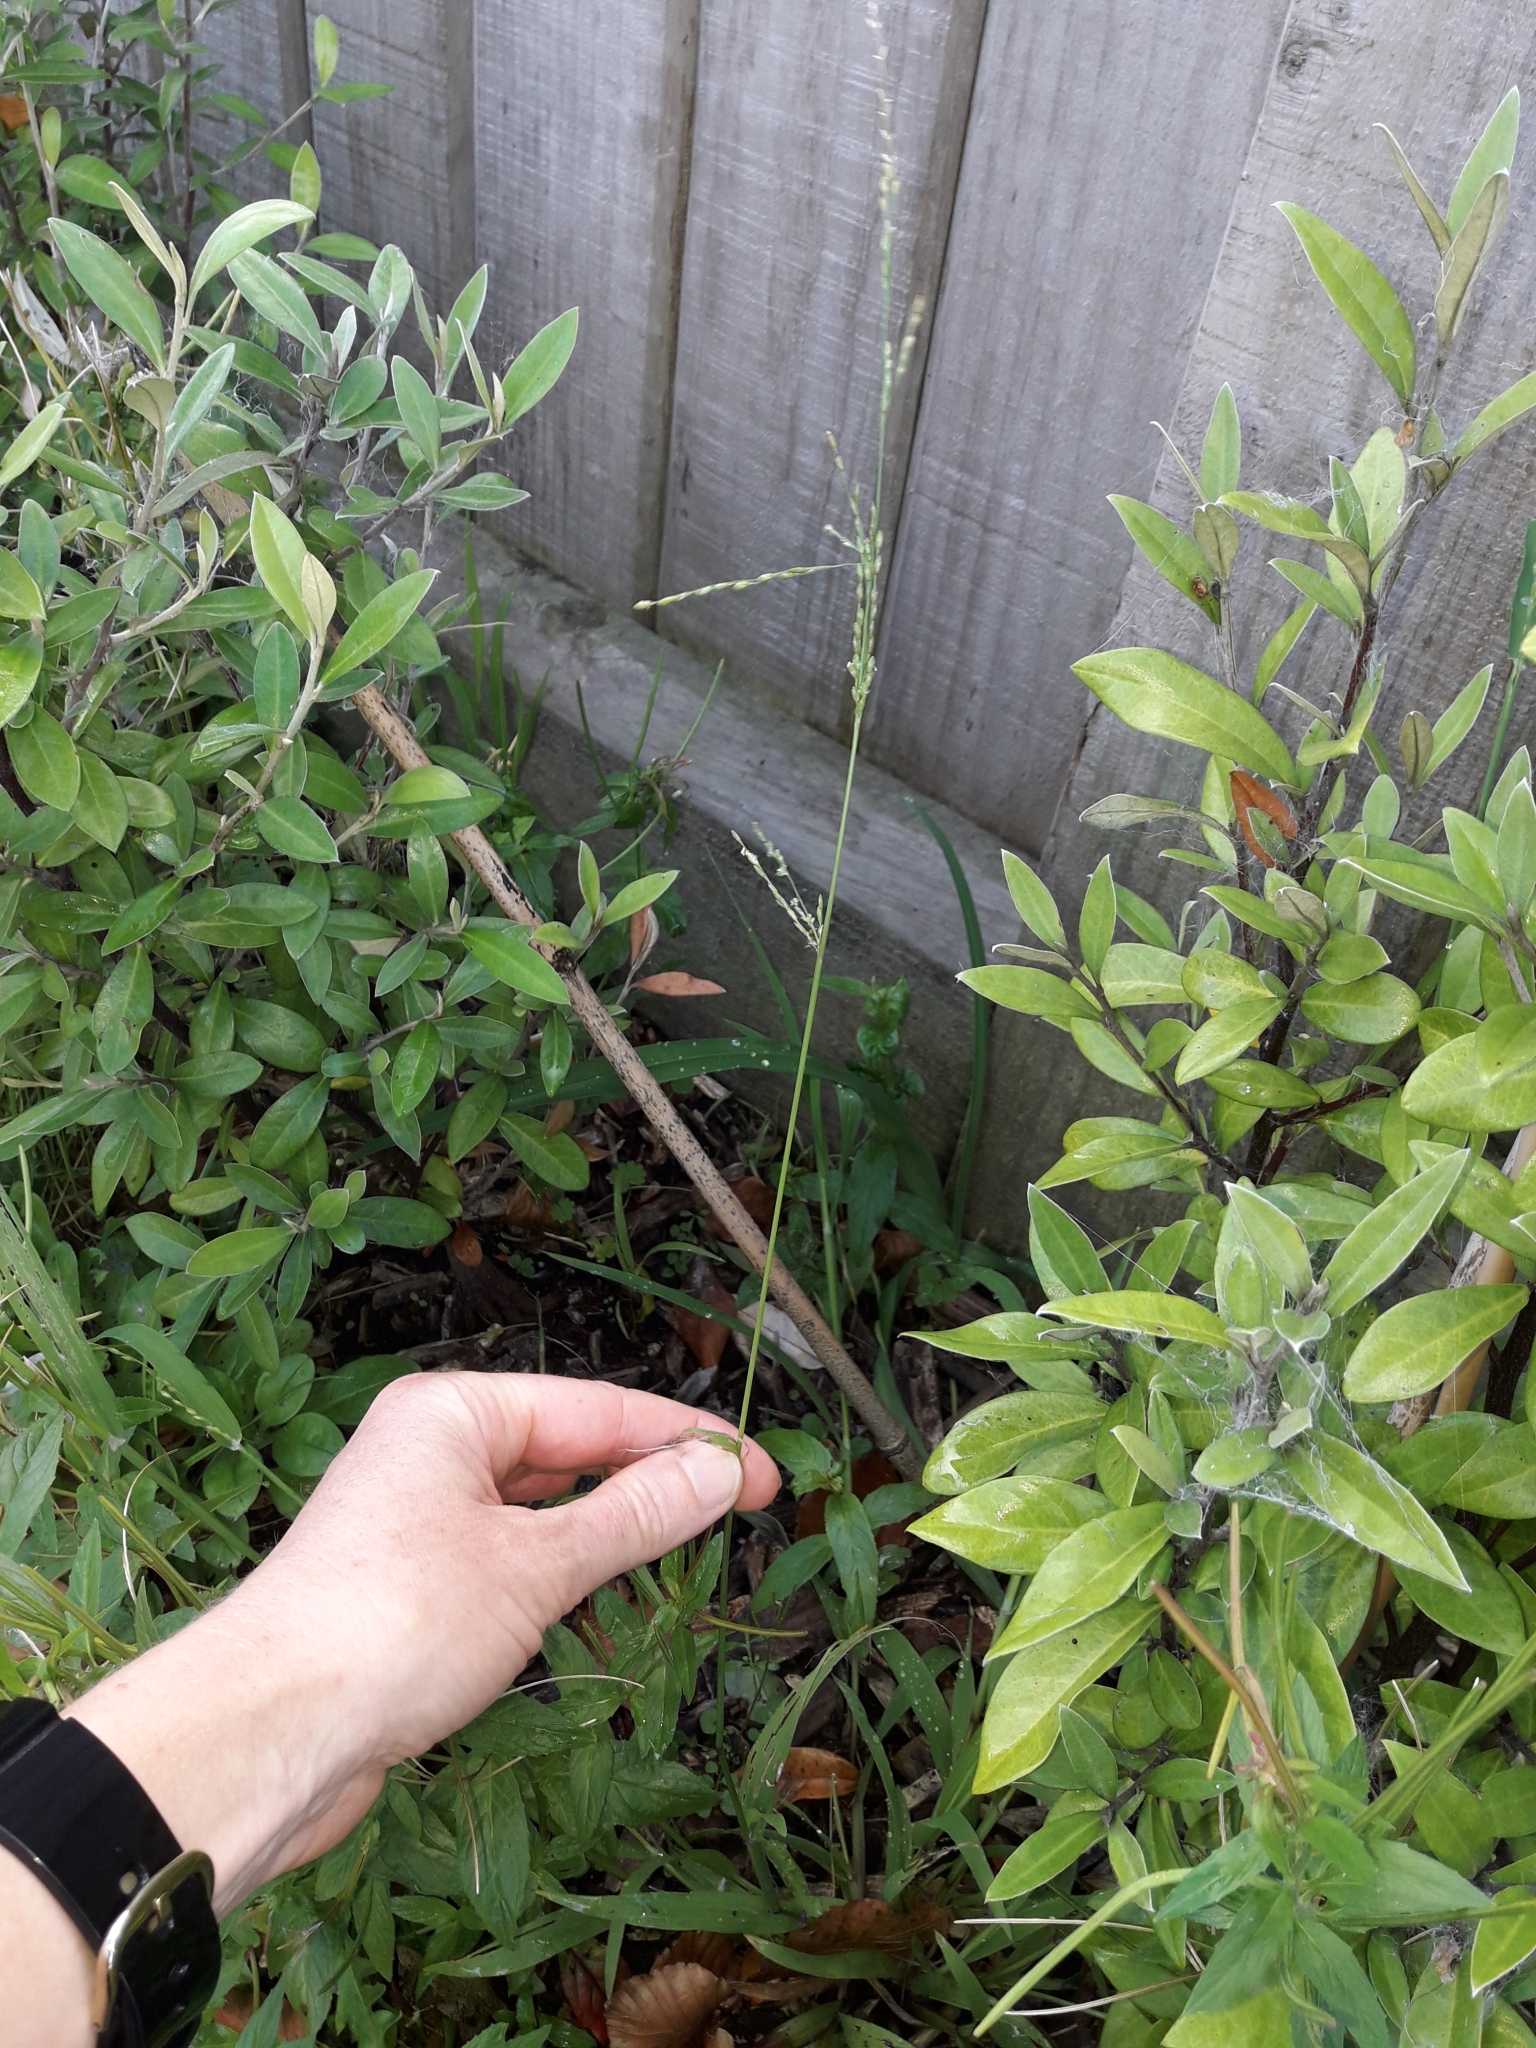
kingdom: Plantae
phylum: Tracheophyta
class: Liliopsida
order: Poales
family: Poaceae
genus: Ehrharta
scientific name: Ehrharta erecta
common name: Panic veldtgrass
